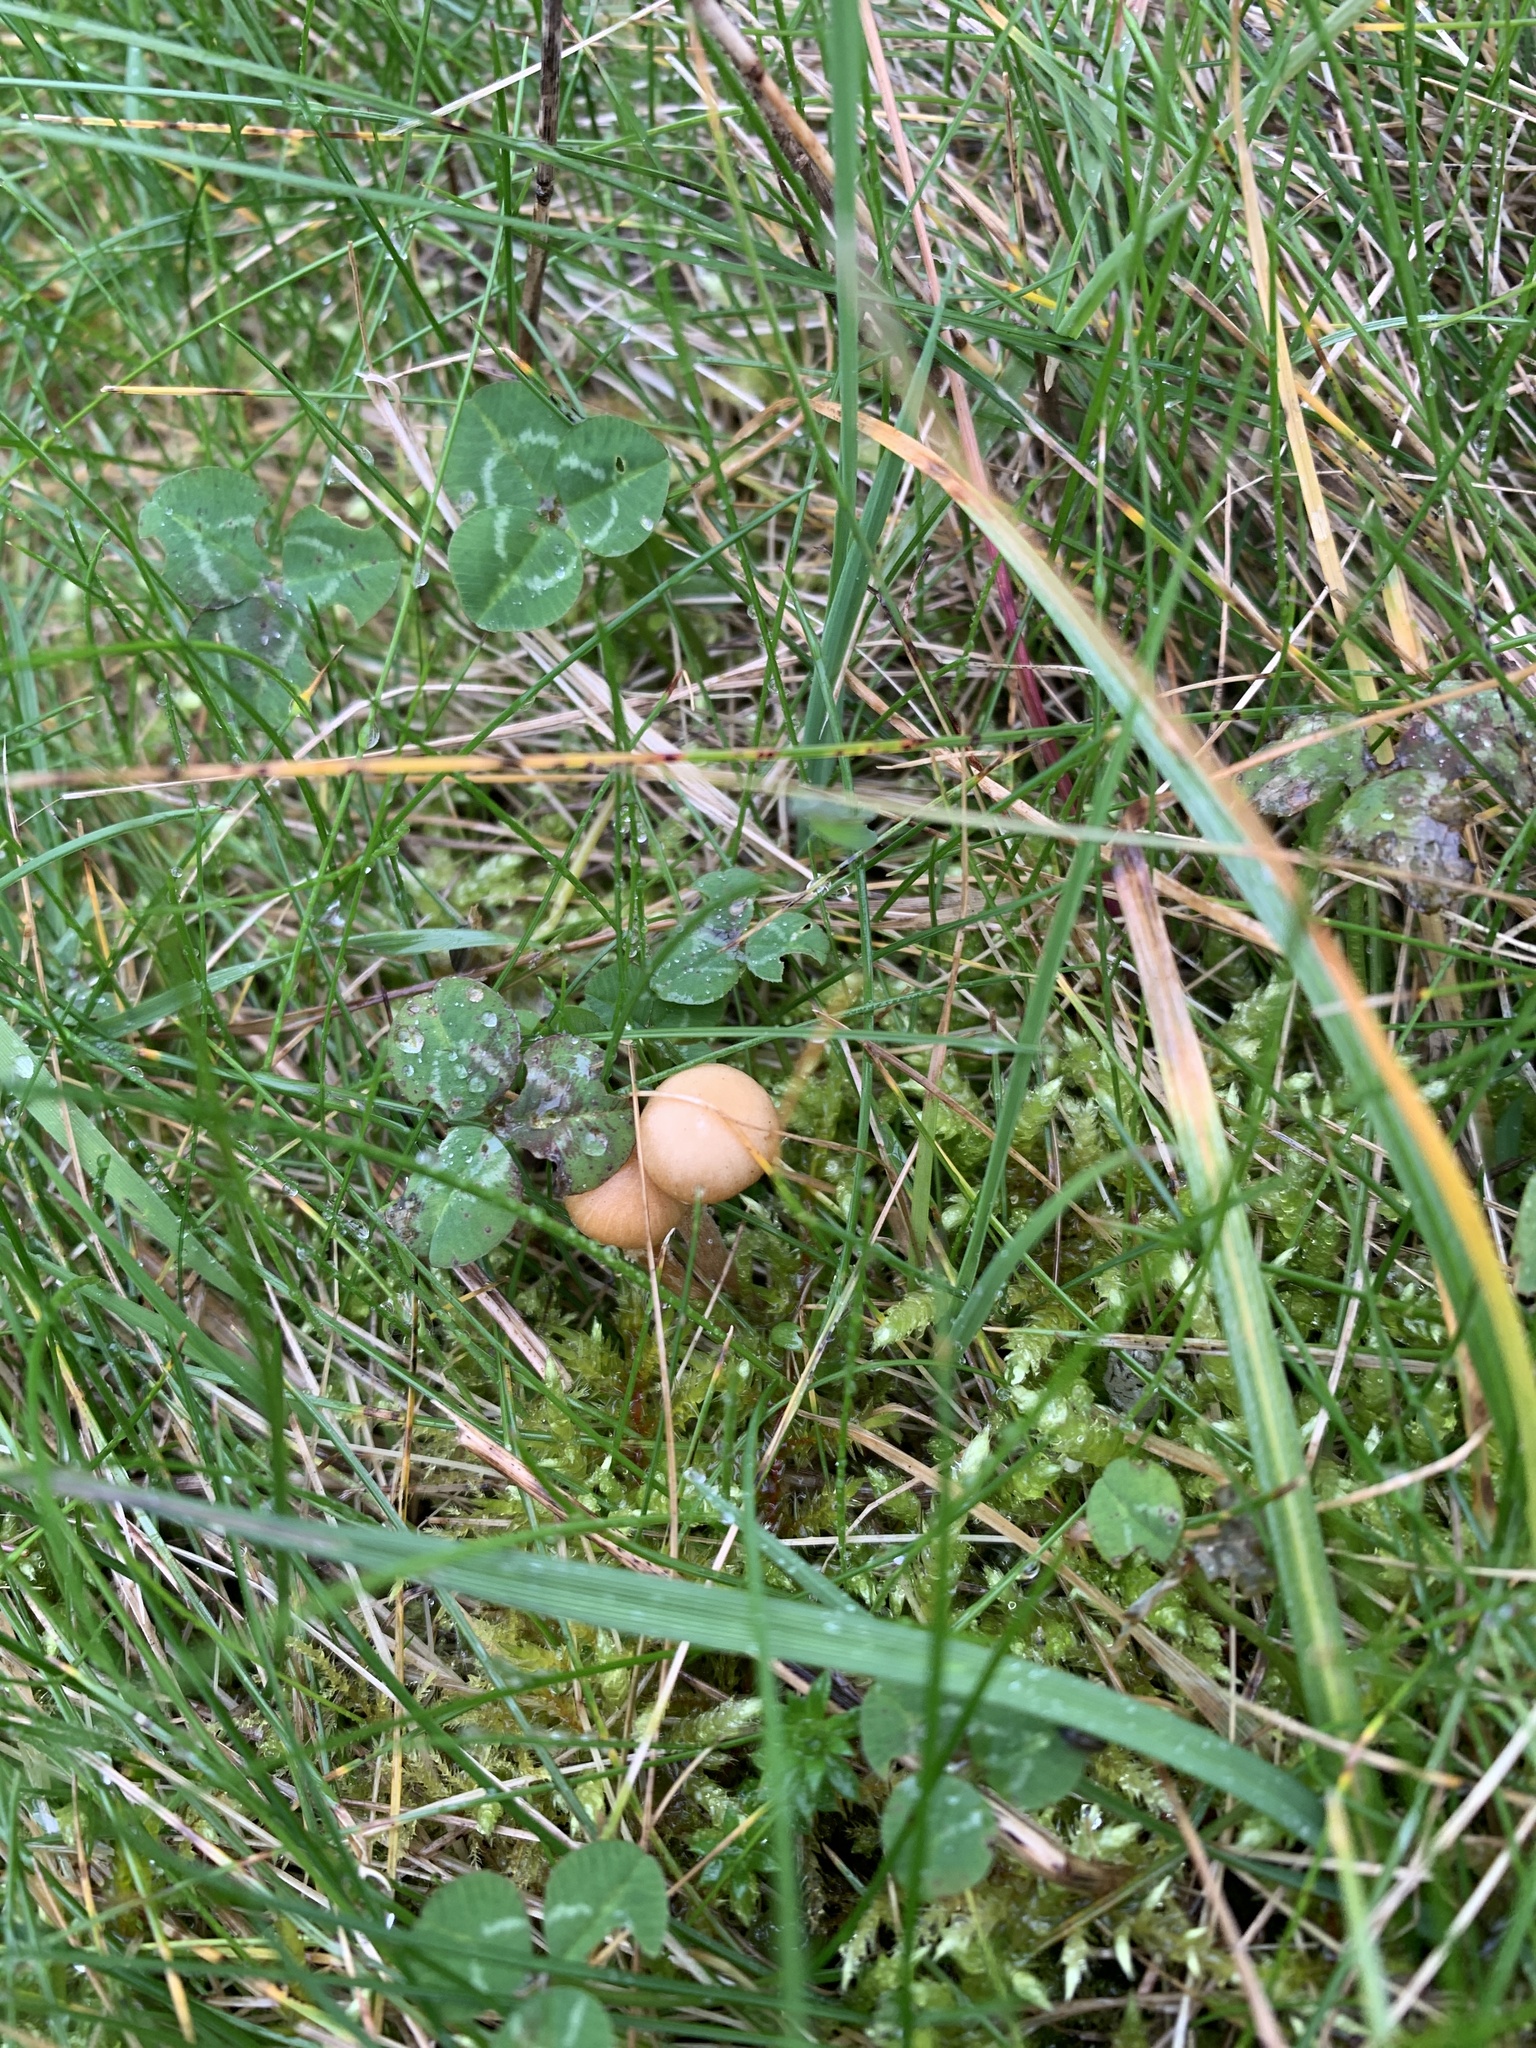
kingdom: Fungi
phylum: Basidiomycota
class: Agaricomycetes
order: Agaricales
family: Hydnangiaceae
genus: Laccaria
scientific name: Laccaria laccata
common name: Deceiver
